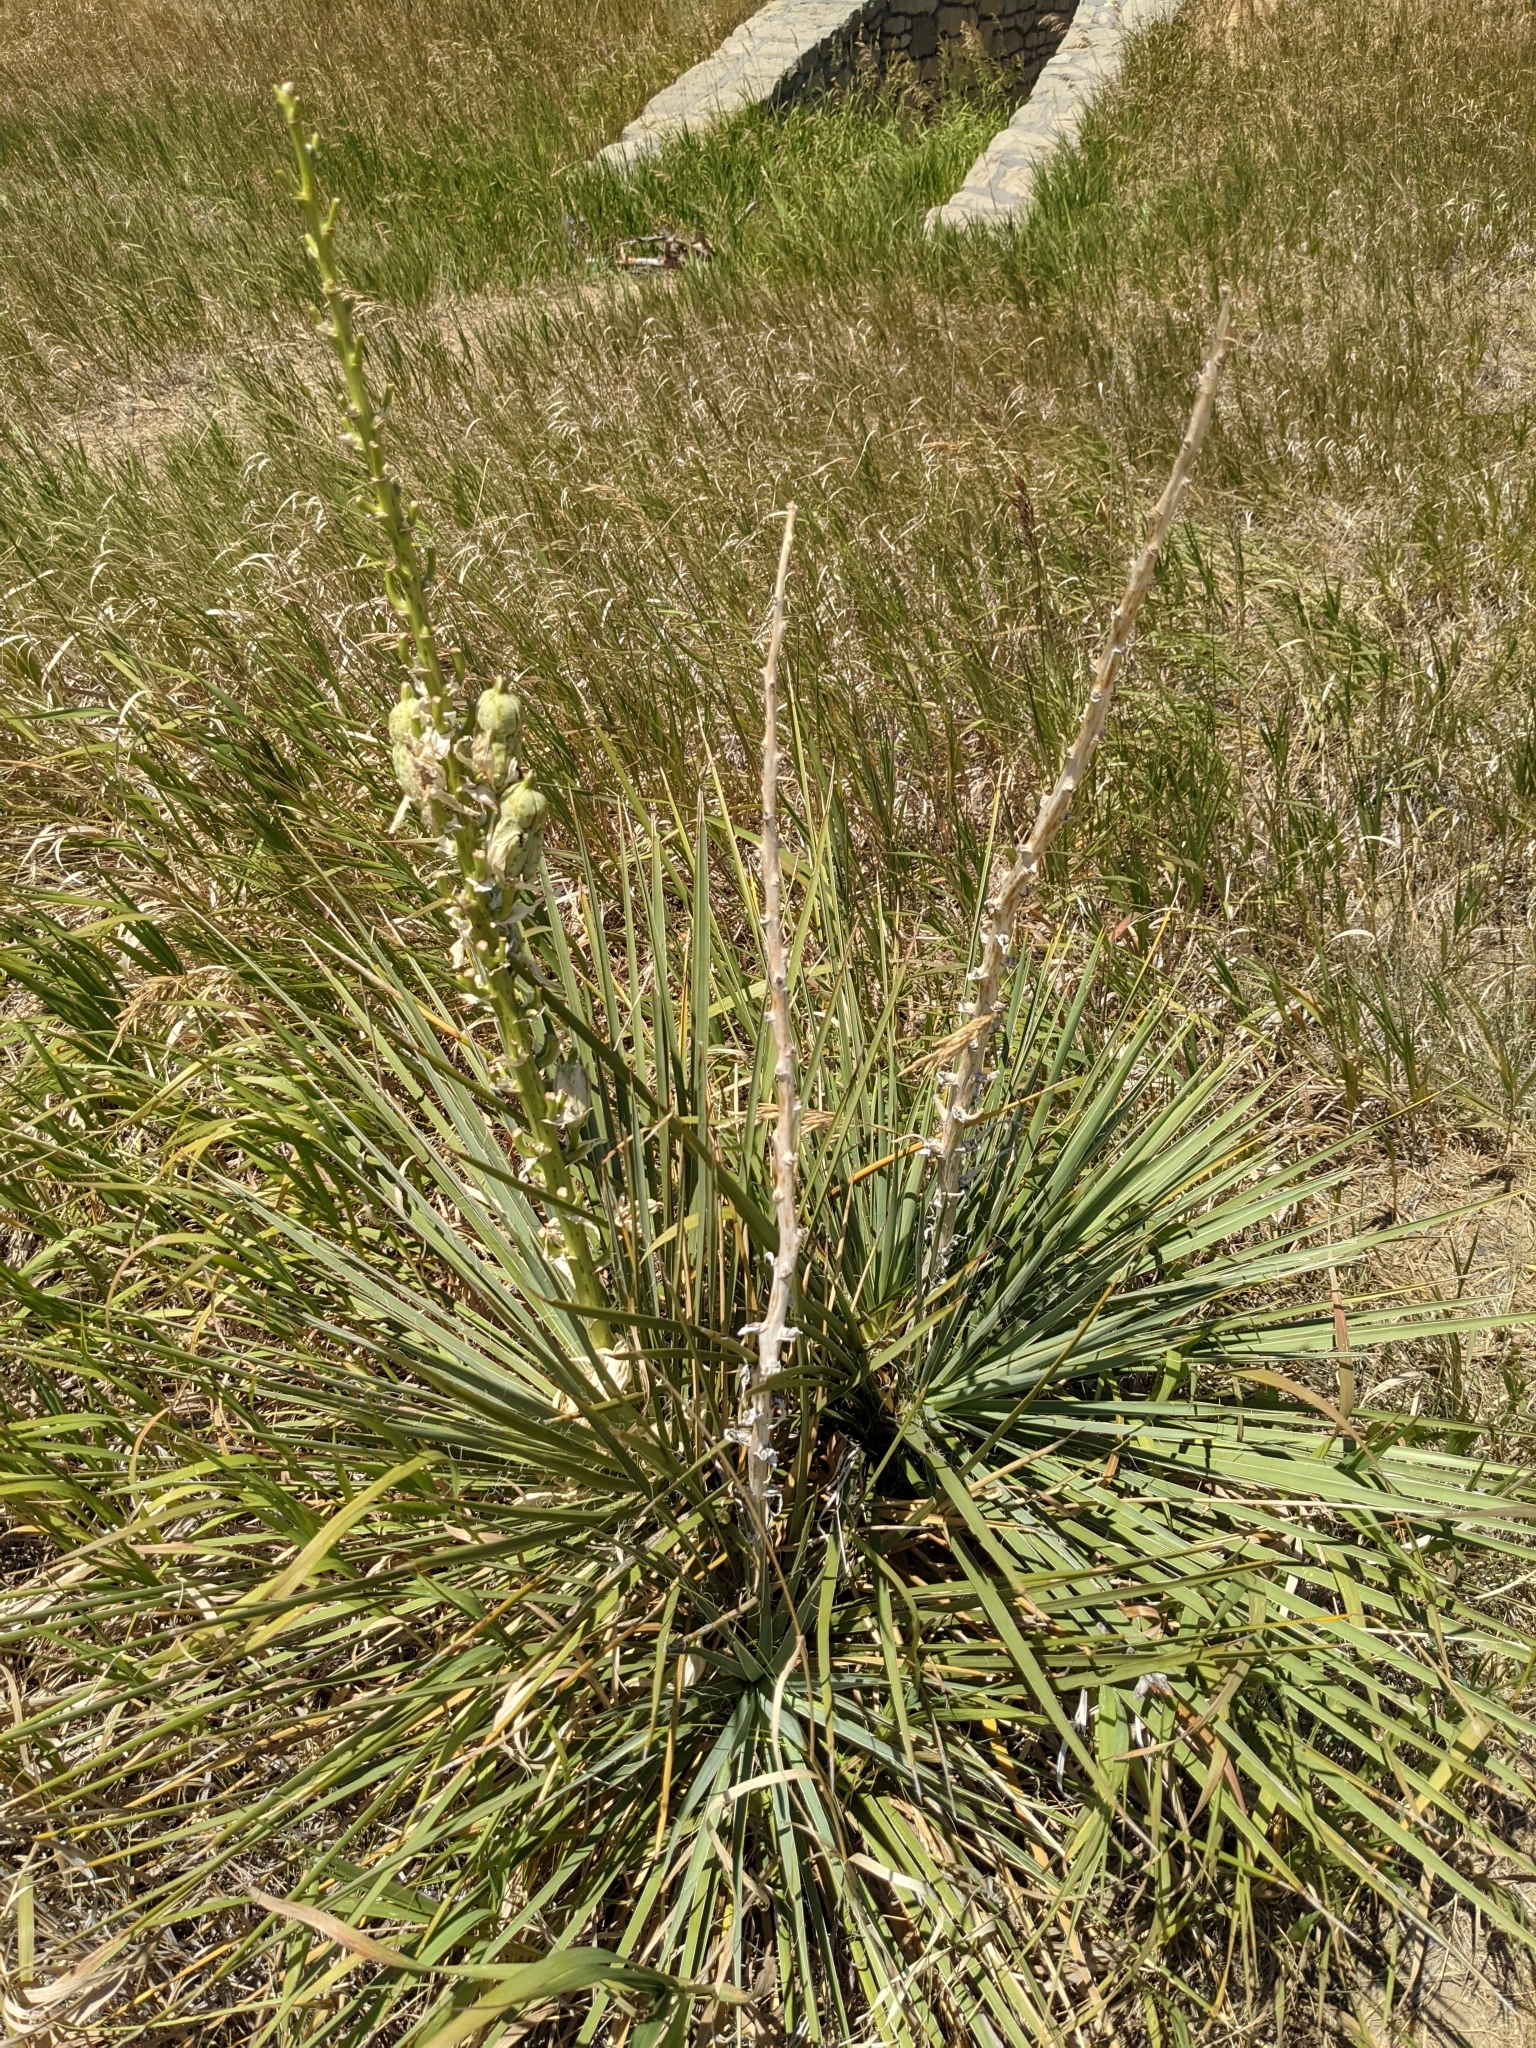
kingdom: Plantae
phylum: Tracheophyta
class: Liliopsida
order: Asparagales
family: Asparagaceae
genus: Yucca
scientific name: Yucca glauca
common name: Great plains yucca
